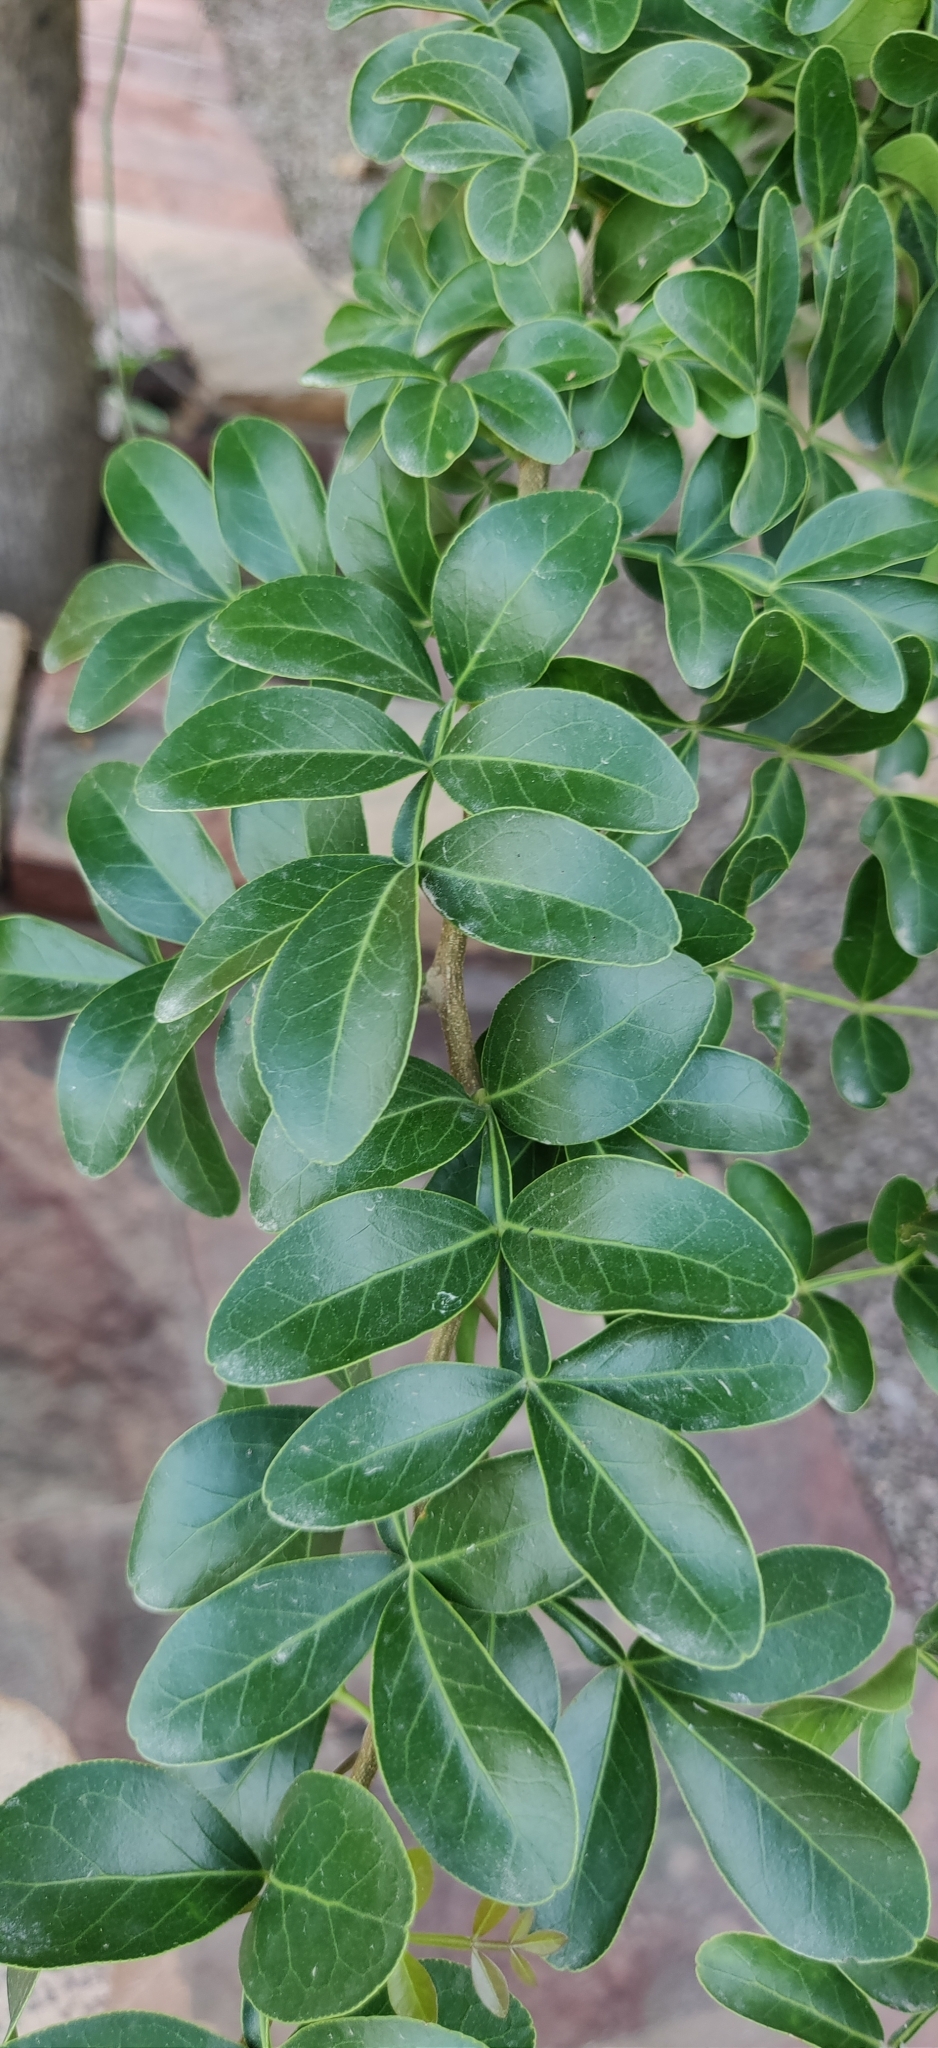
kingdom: Plantae
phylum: Tracheophyta
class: Magnoliopsida
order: Sapindales
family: Rutaceae
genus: Limonia
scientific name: Limonia acidissima
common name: Elephant apple
